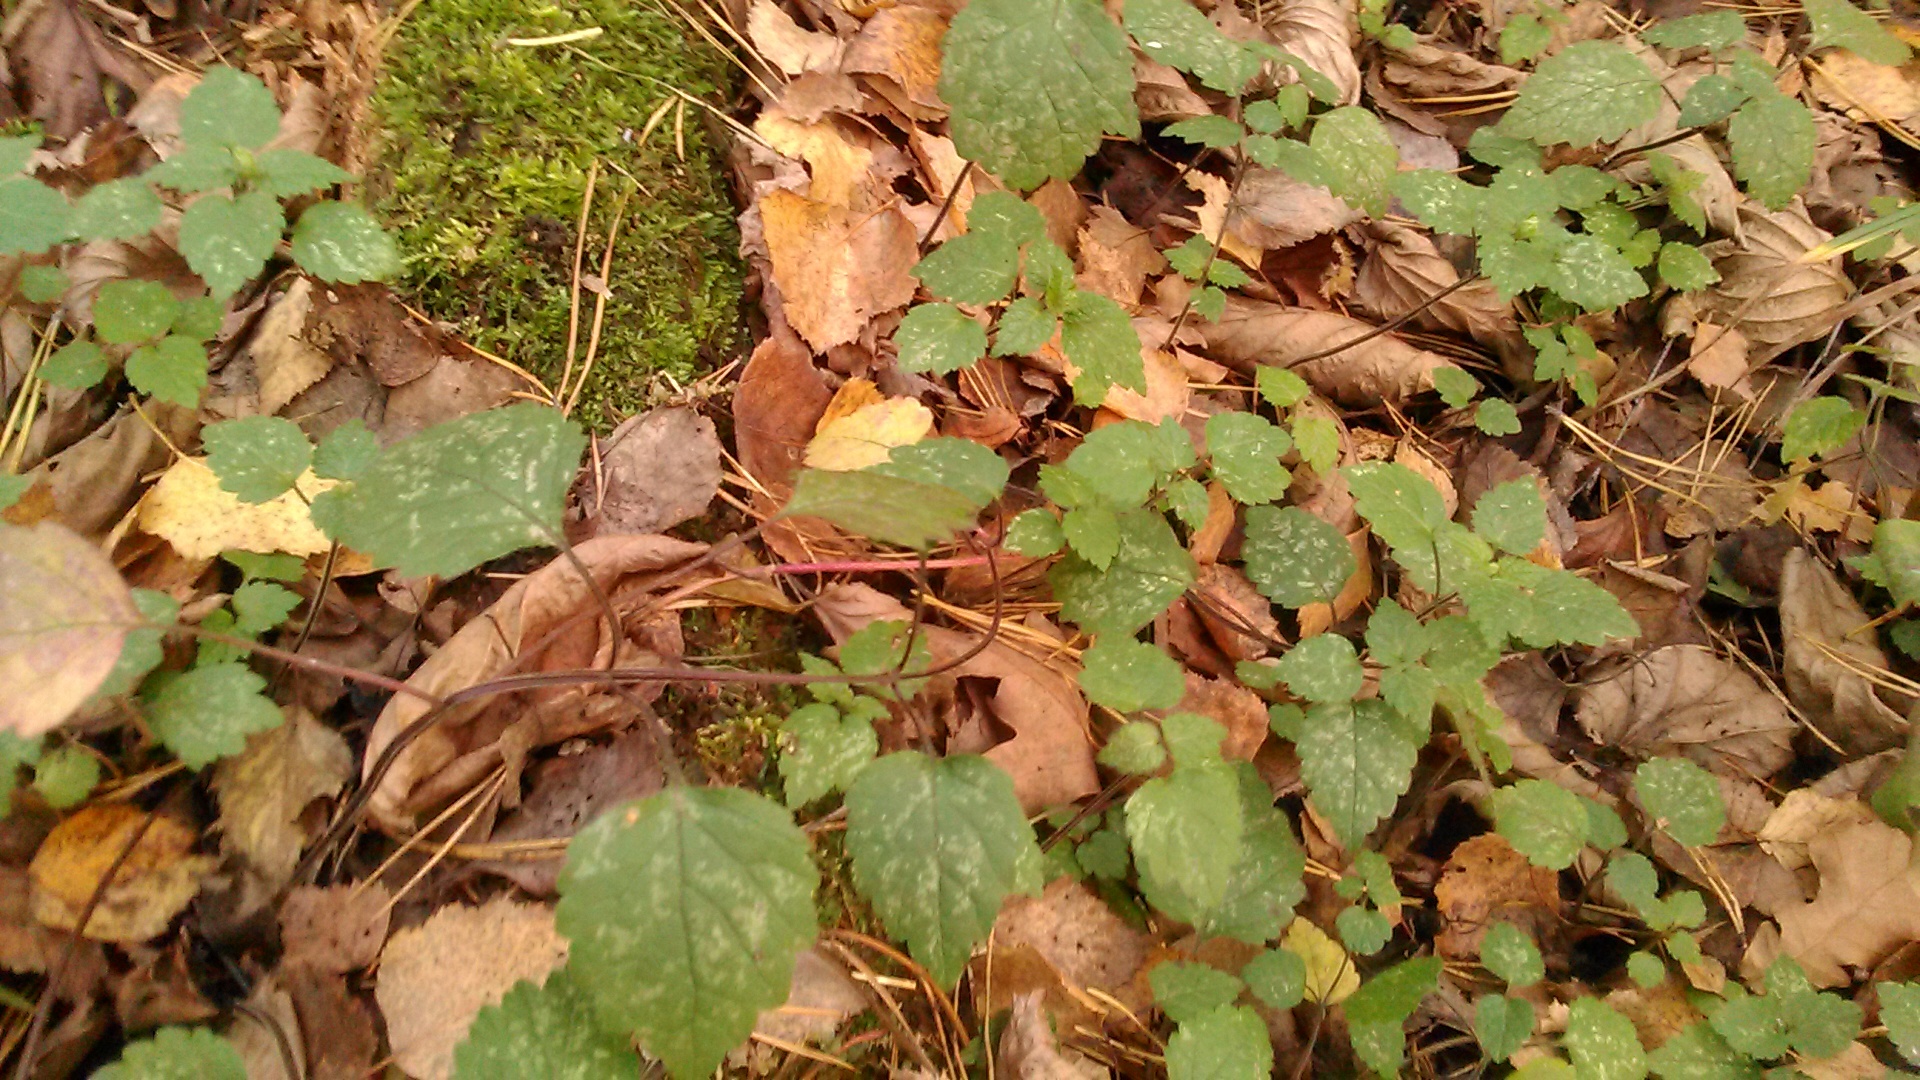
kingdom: Plantae
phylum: Tracheophyta
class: Magnoliopsida
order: Lamiales
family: Lamiaceae
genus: Lamium
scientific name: Lamium galeobdolon
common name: Yellow archangel
